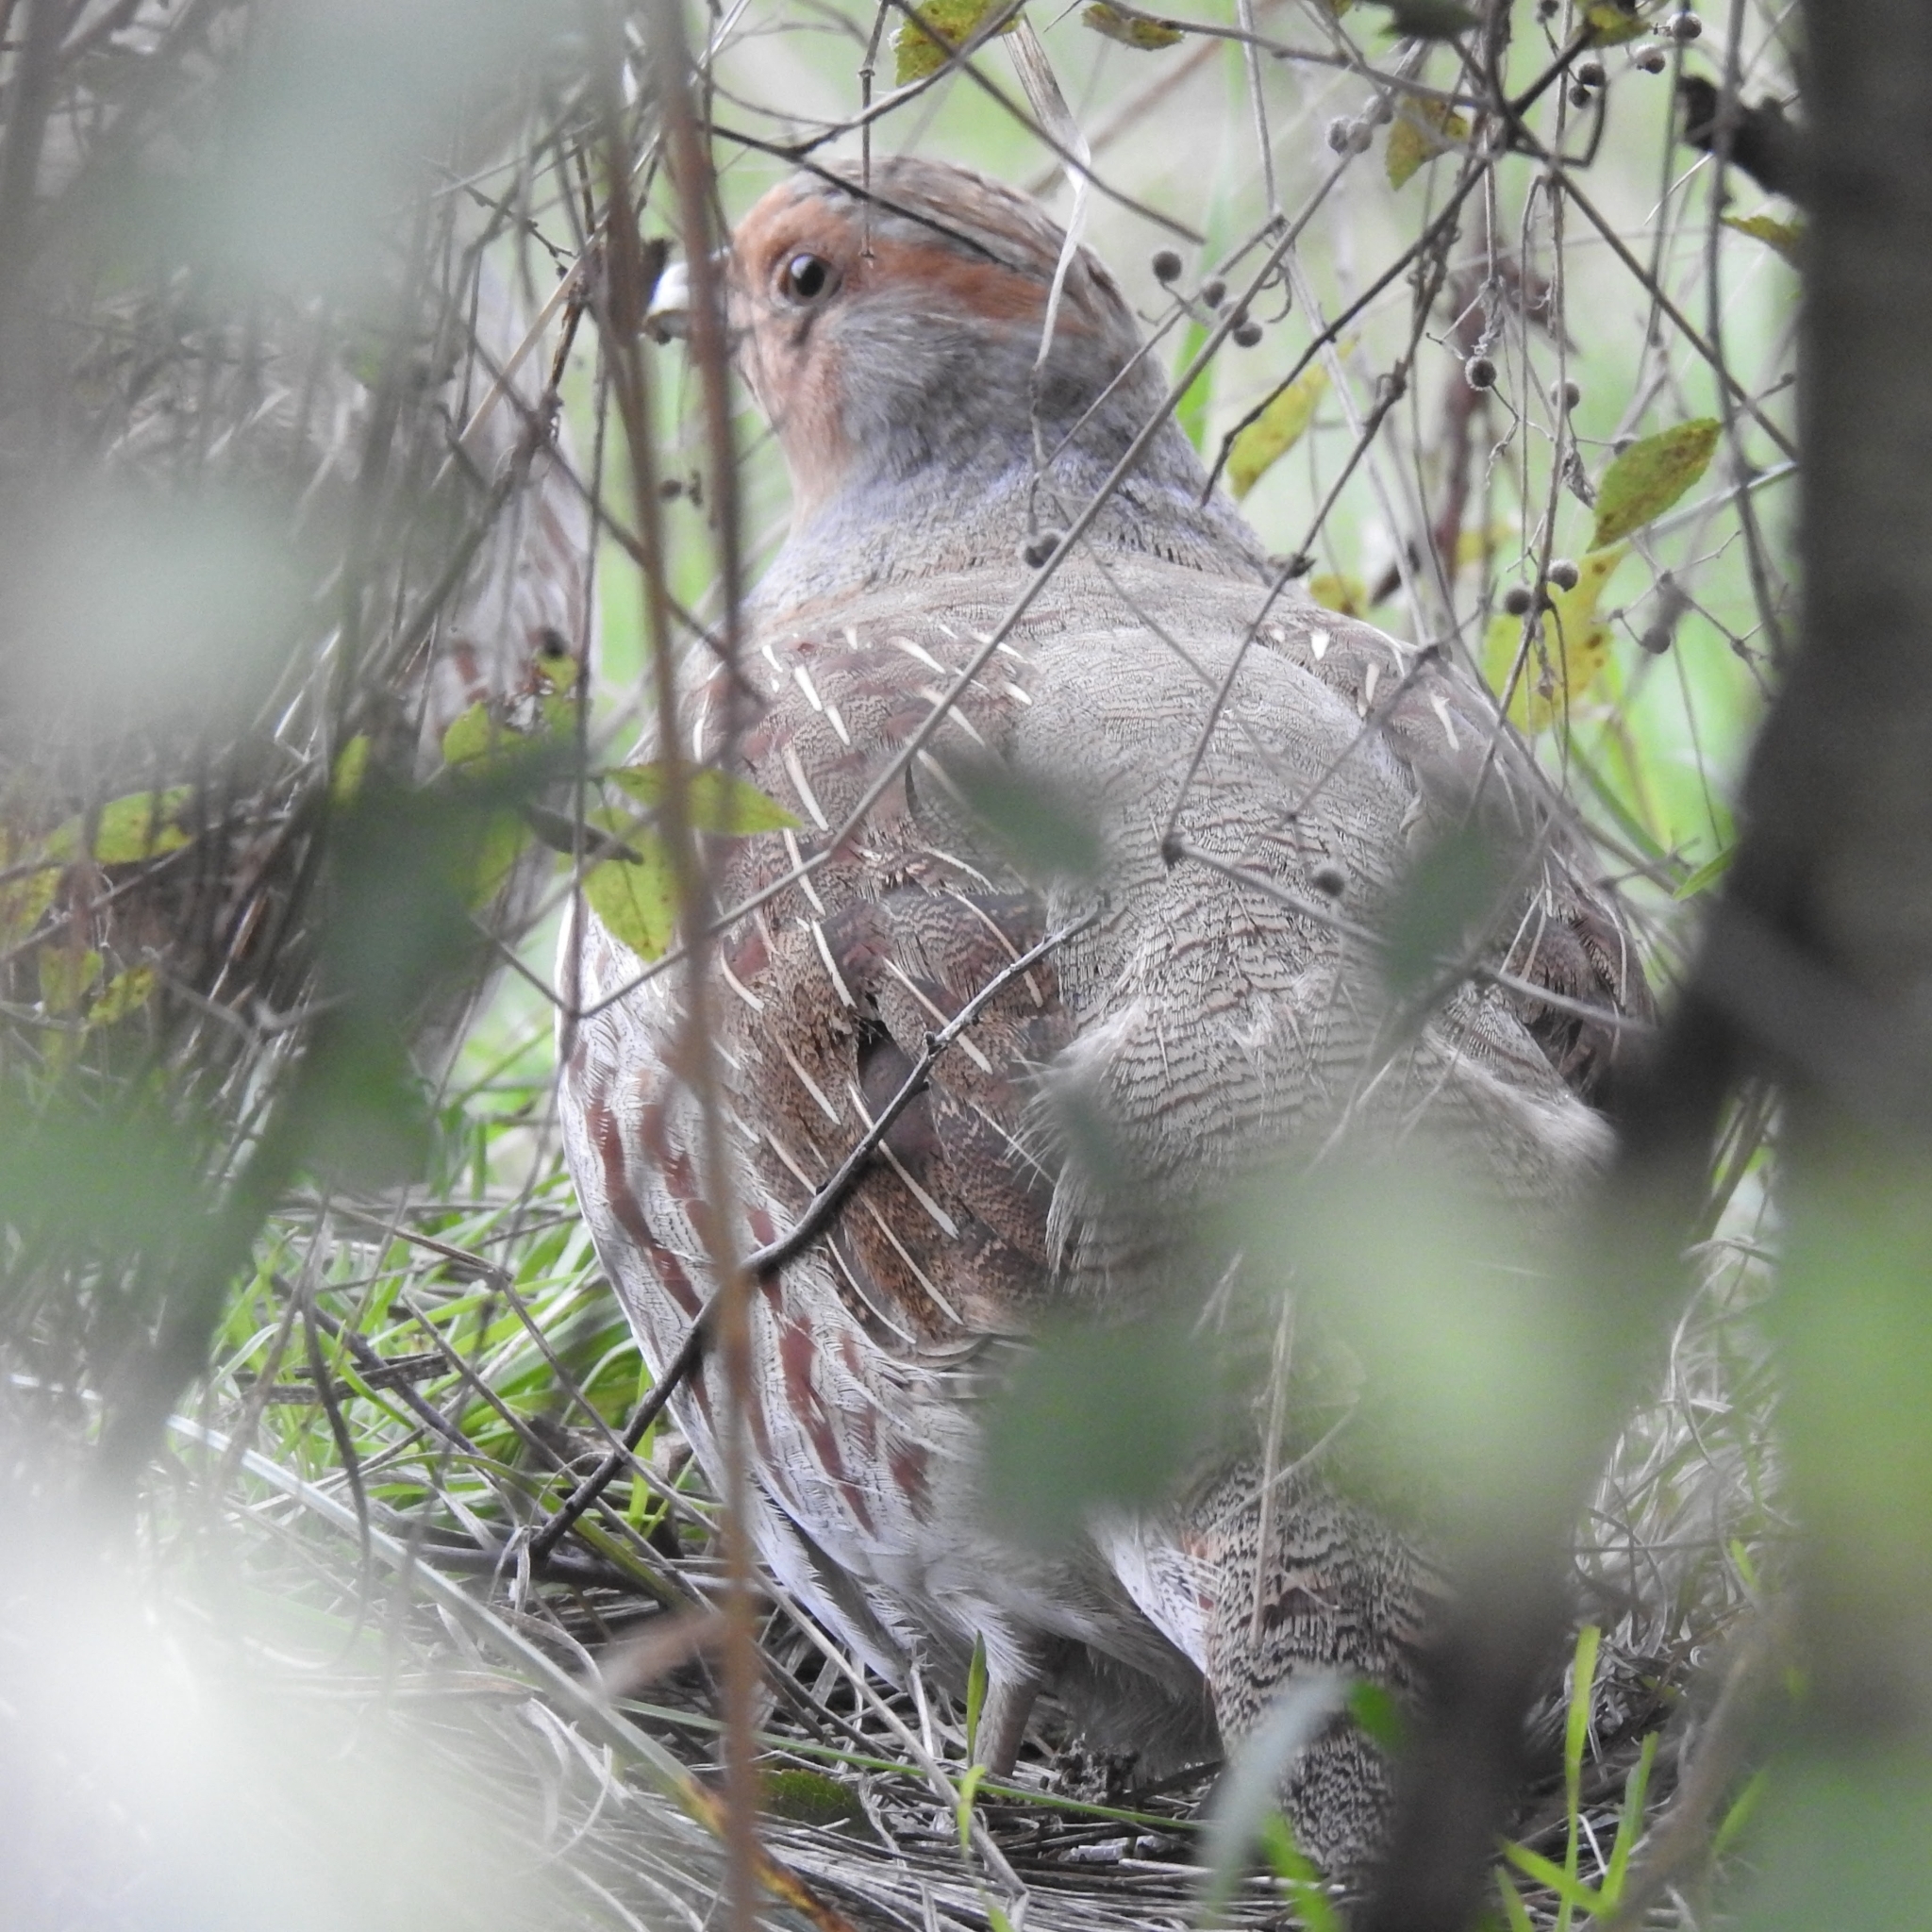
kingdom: Animalia
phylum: Chordata
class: Aves
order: Galliformes
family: Phasianidae
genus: Perdix
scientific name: Perdix perdix
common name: Grey partridge
